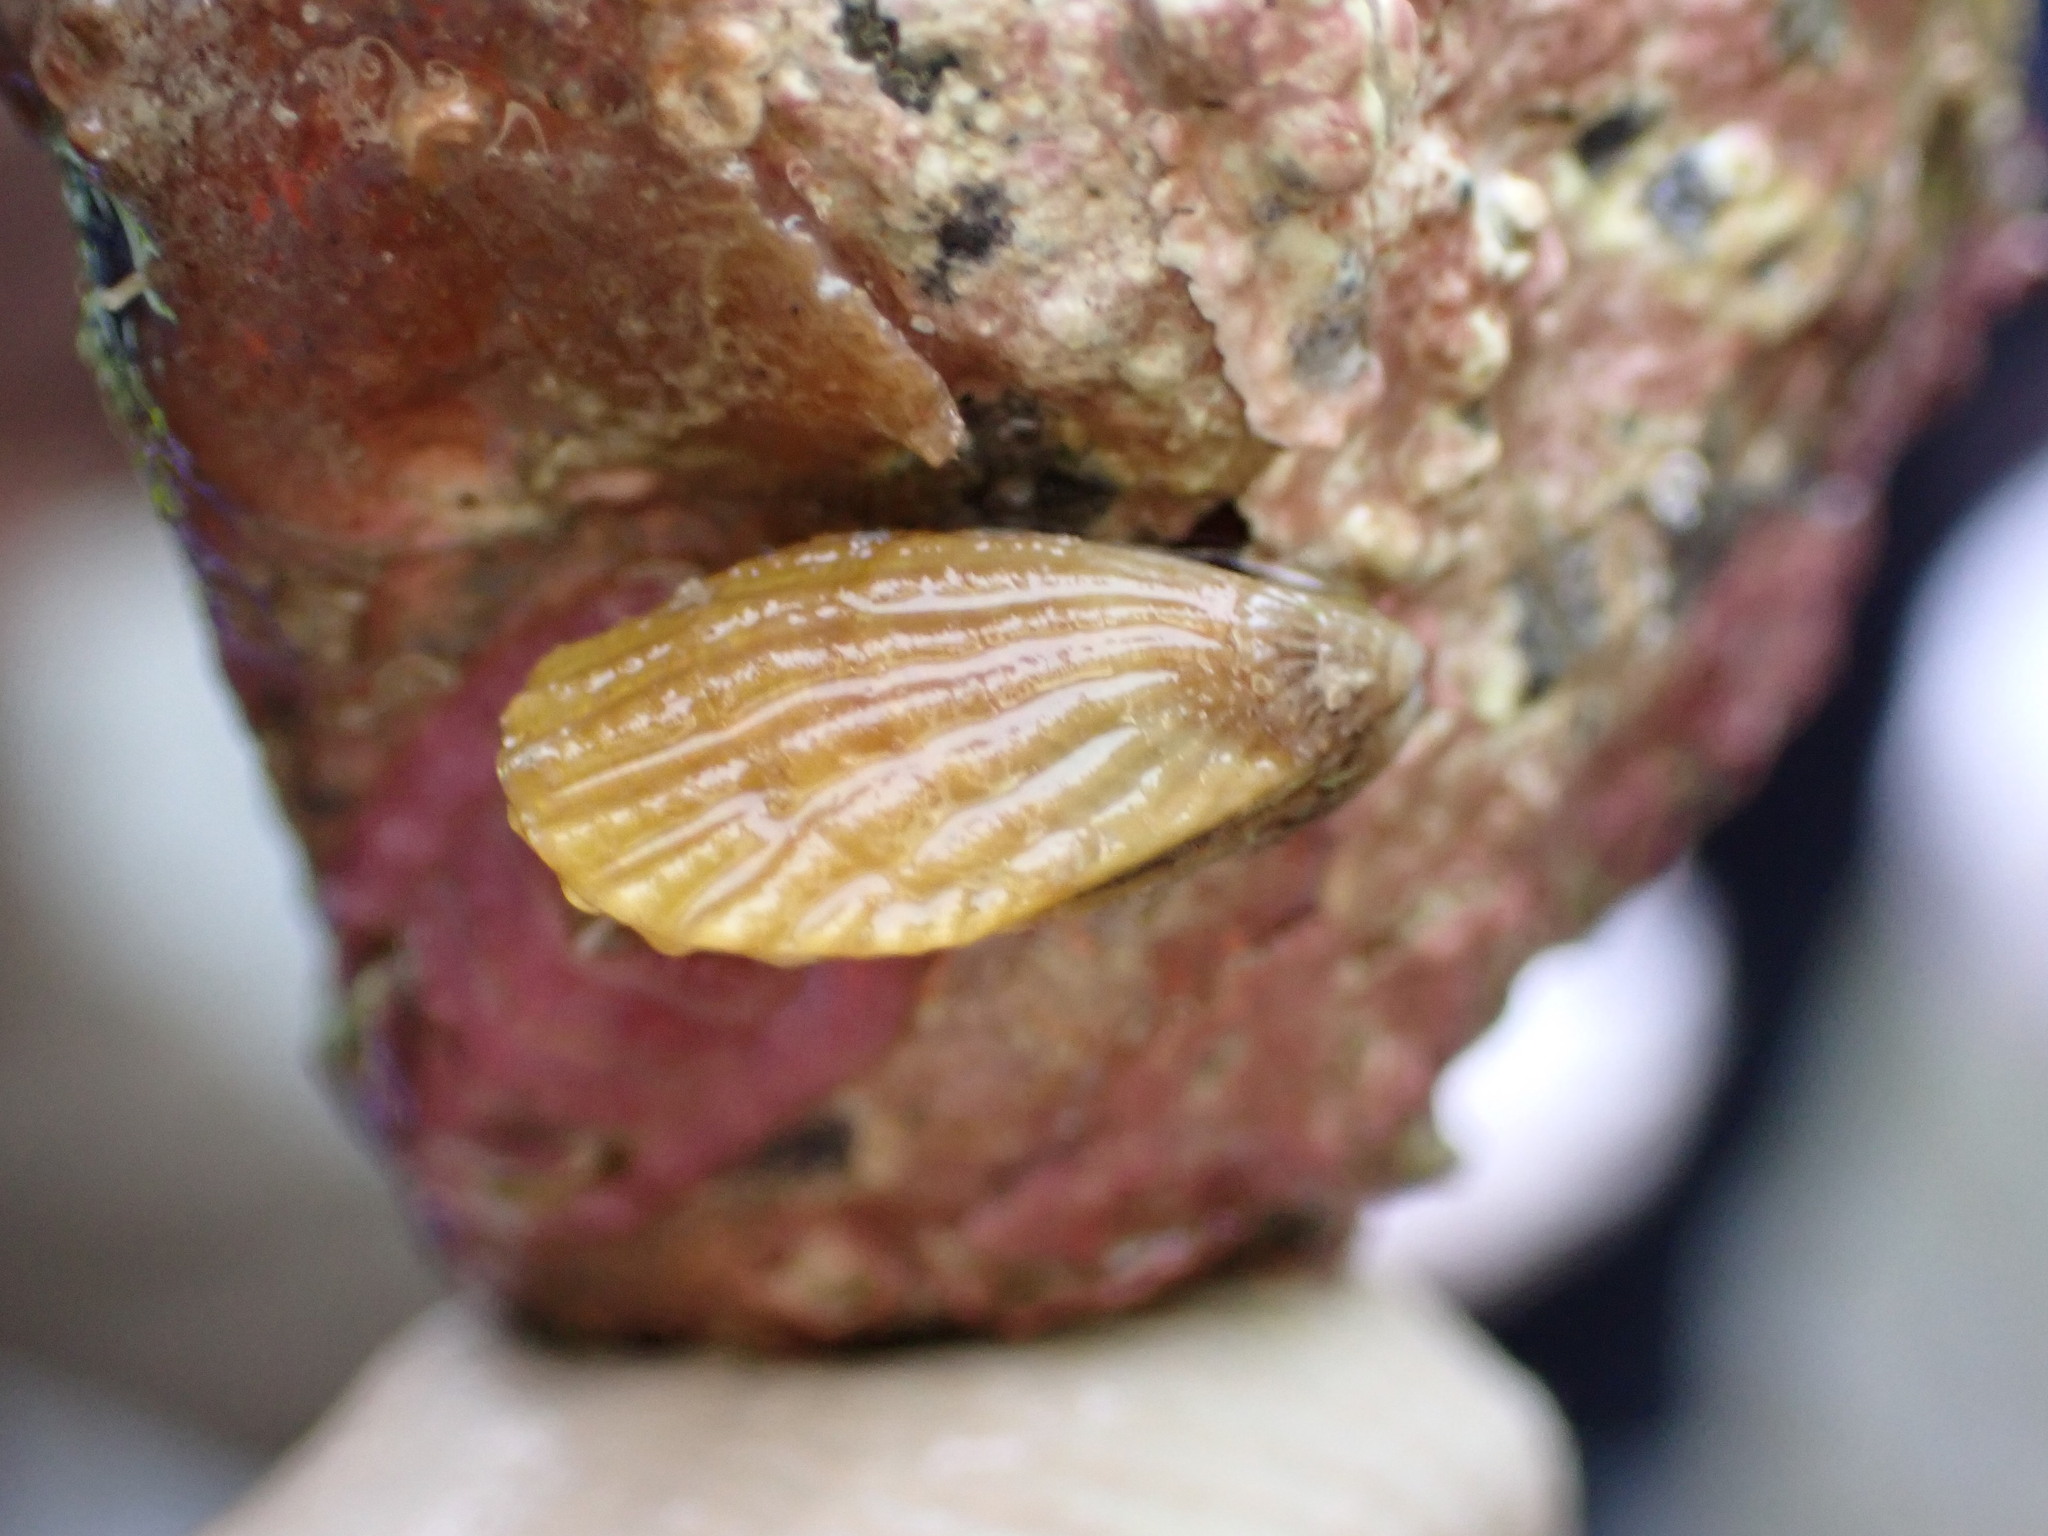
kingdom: Animalia
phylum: Mollusca
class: Bivalvia
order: Mytilida
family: Mytilidae
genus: Aulacomya
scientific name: Aulacomya maoriana
